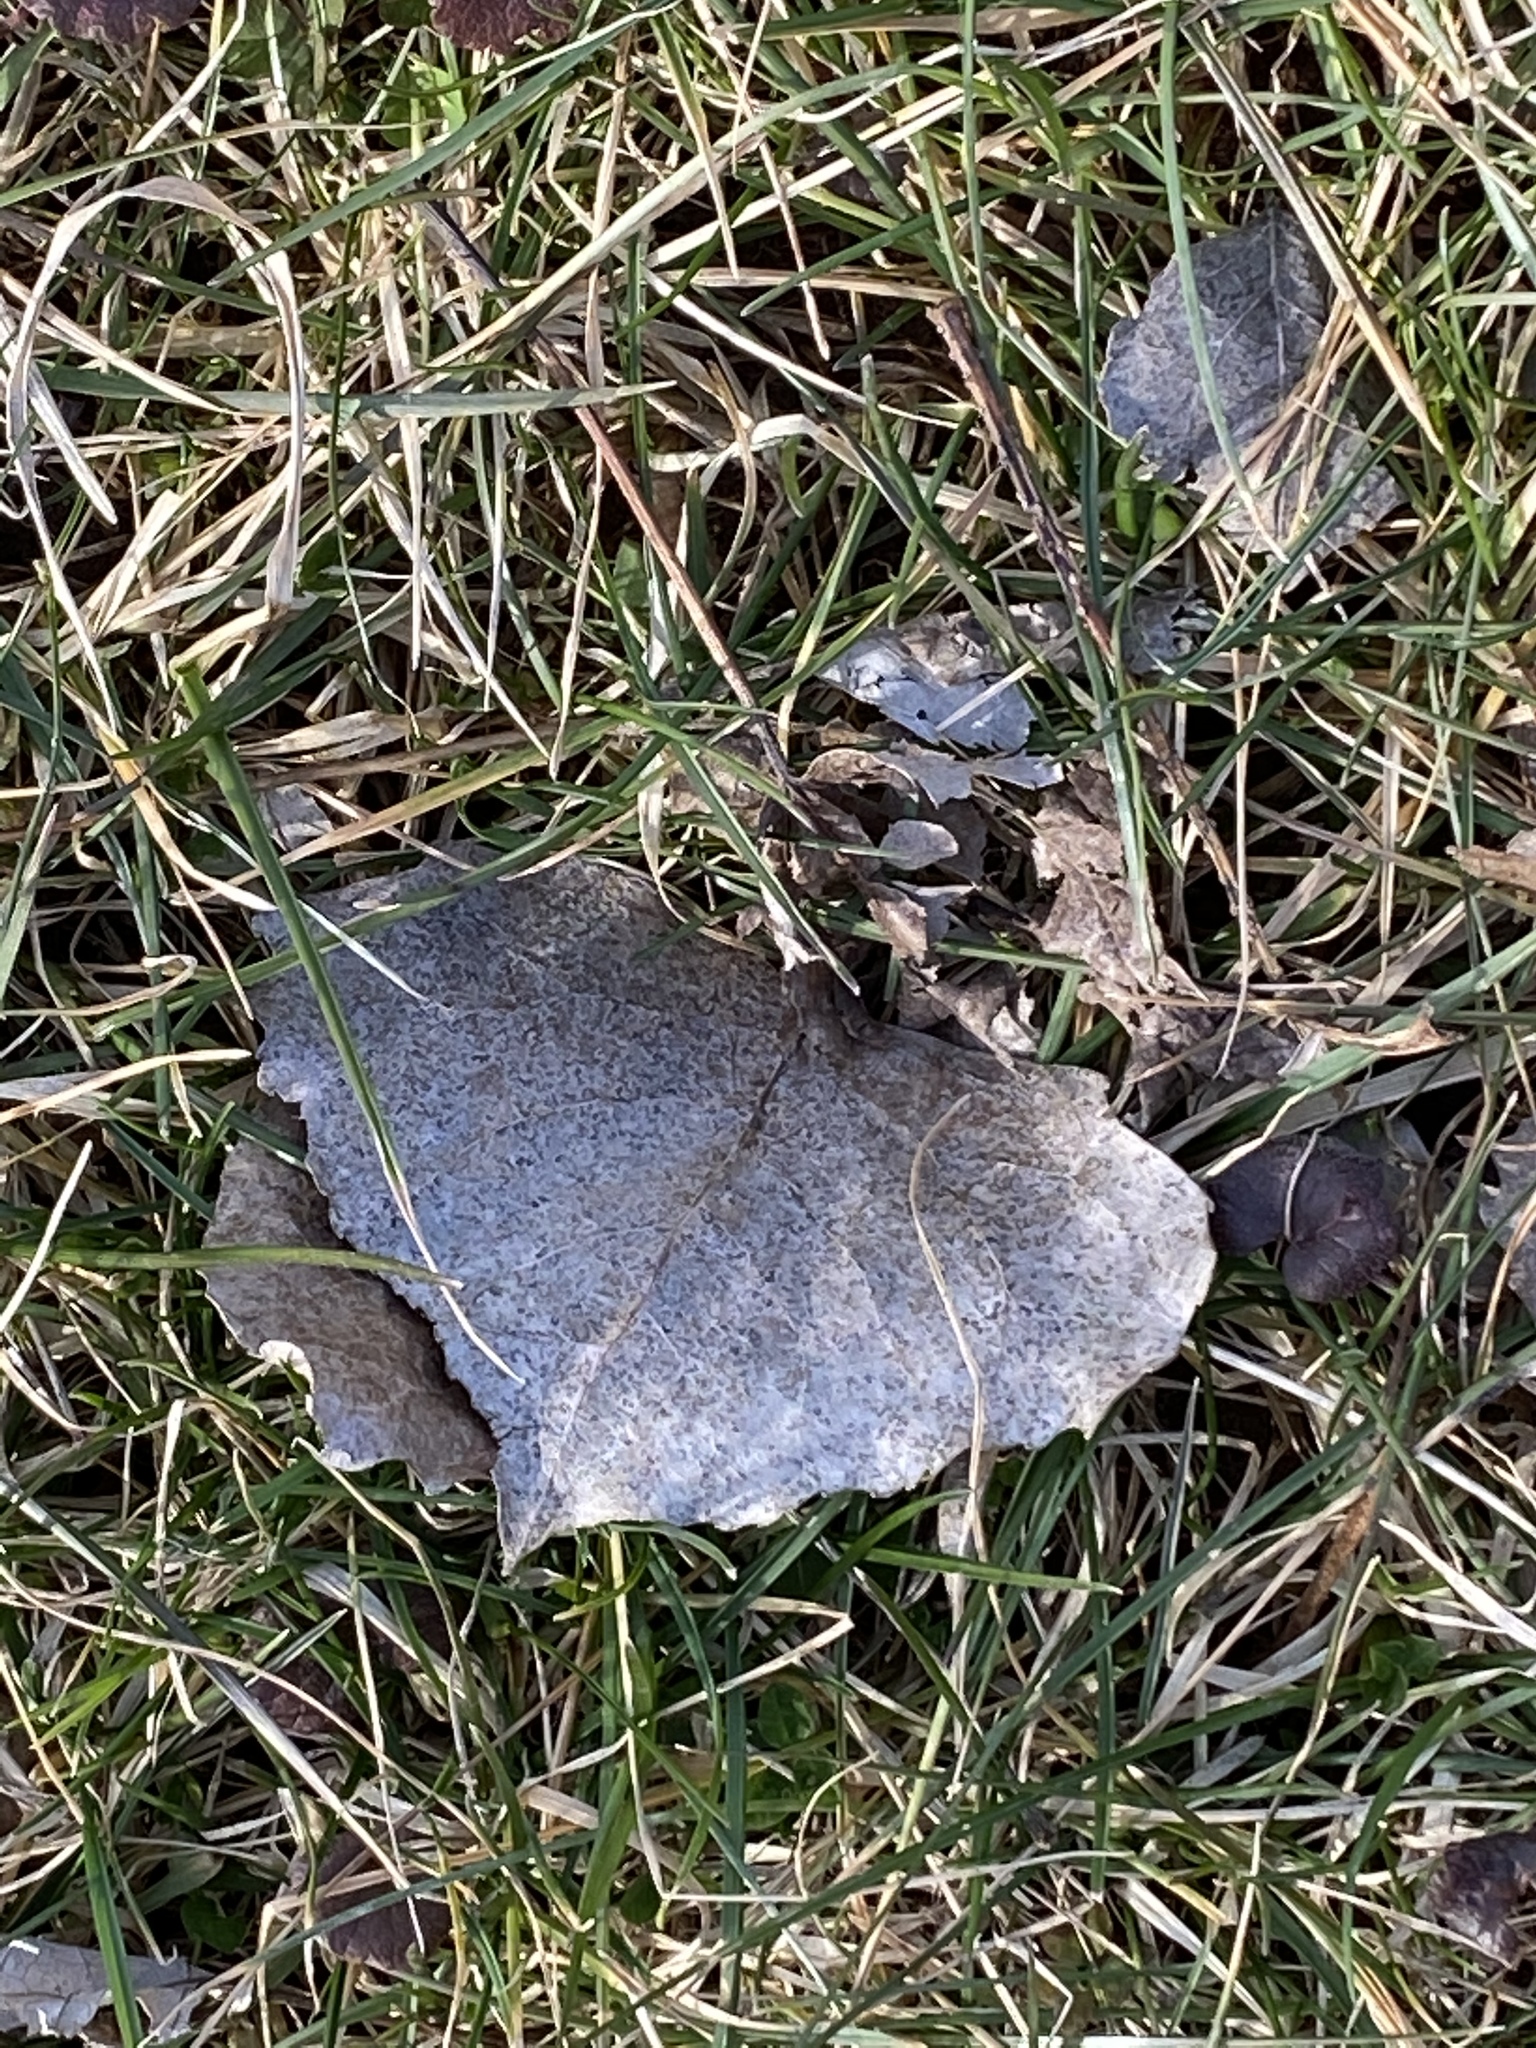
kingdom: Plantae
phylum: Tracheophyta
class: Magnoliopsida
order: Malpighiales
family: Salicaceae
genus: Populus
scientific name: Populus deltoides
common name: Eastern cottonwood
